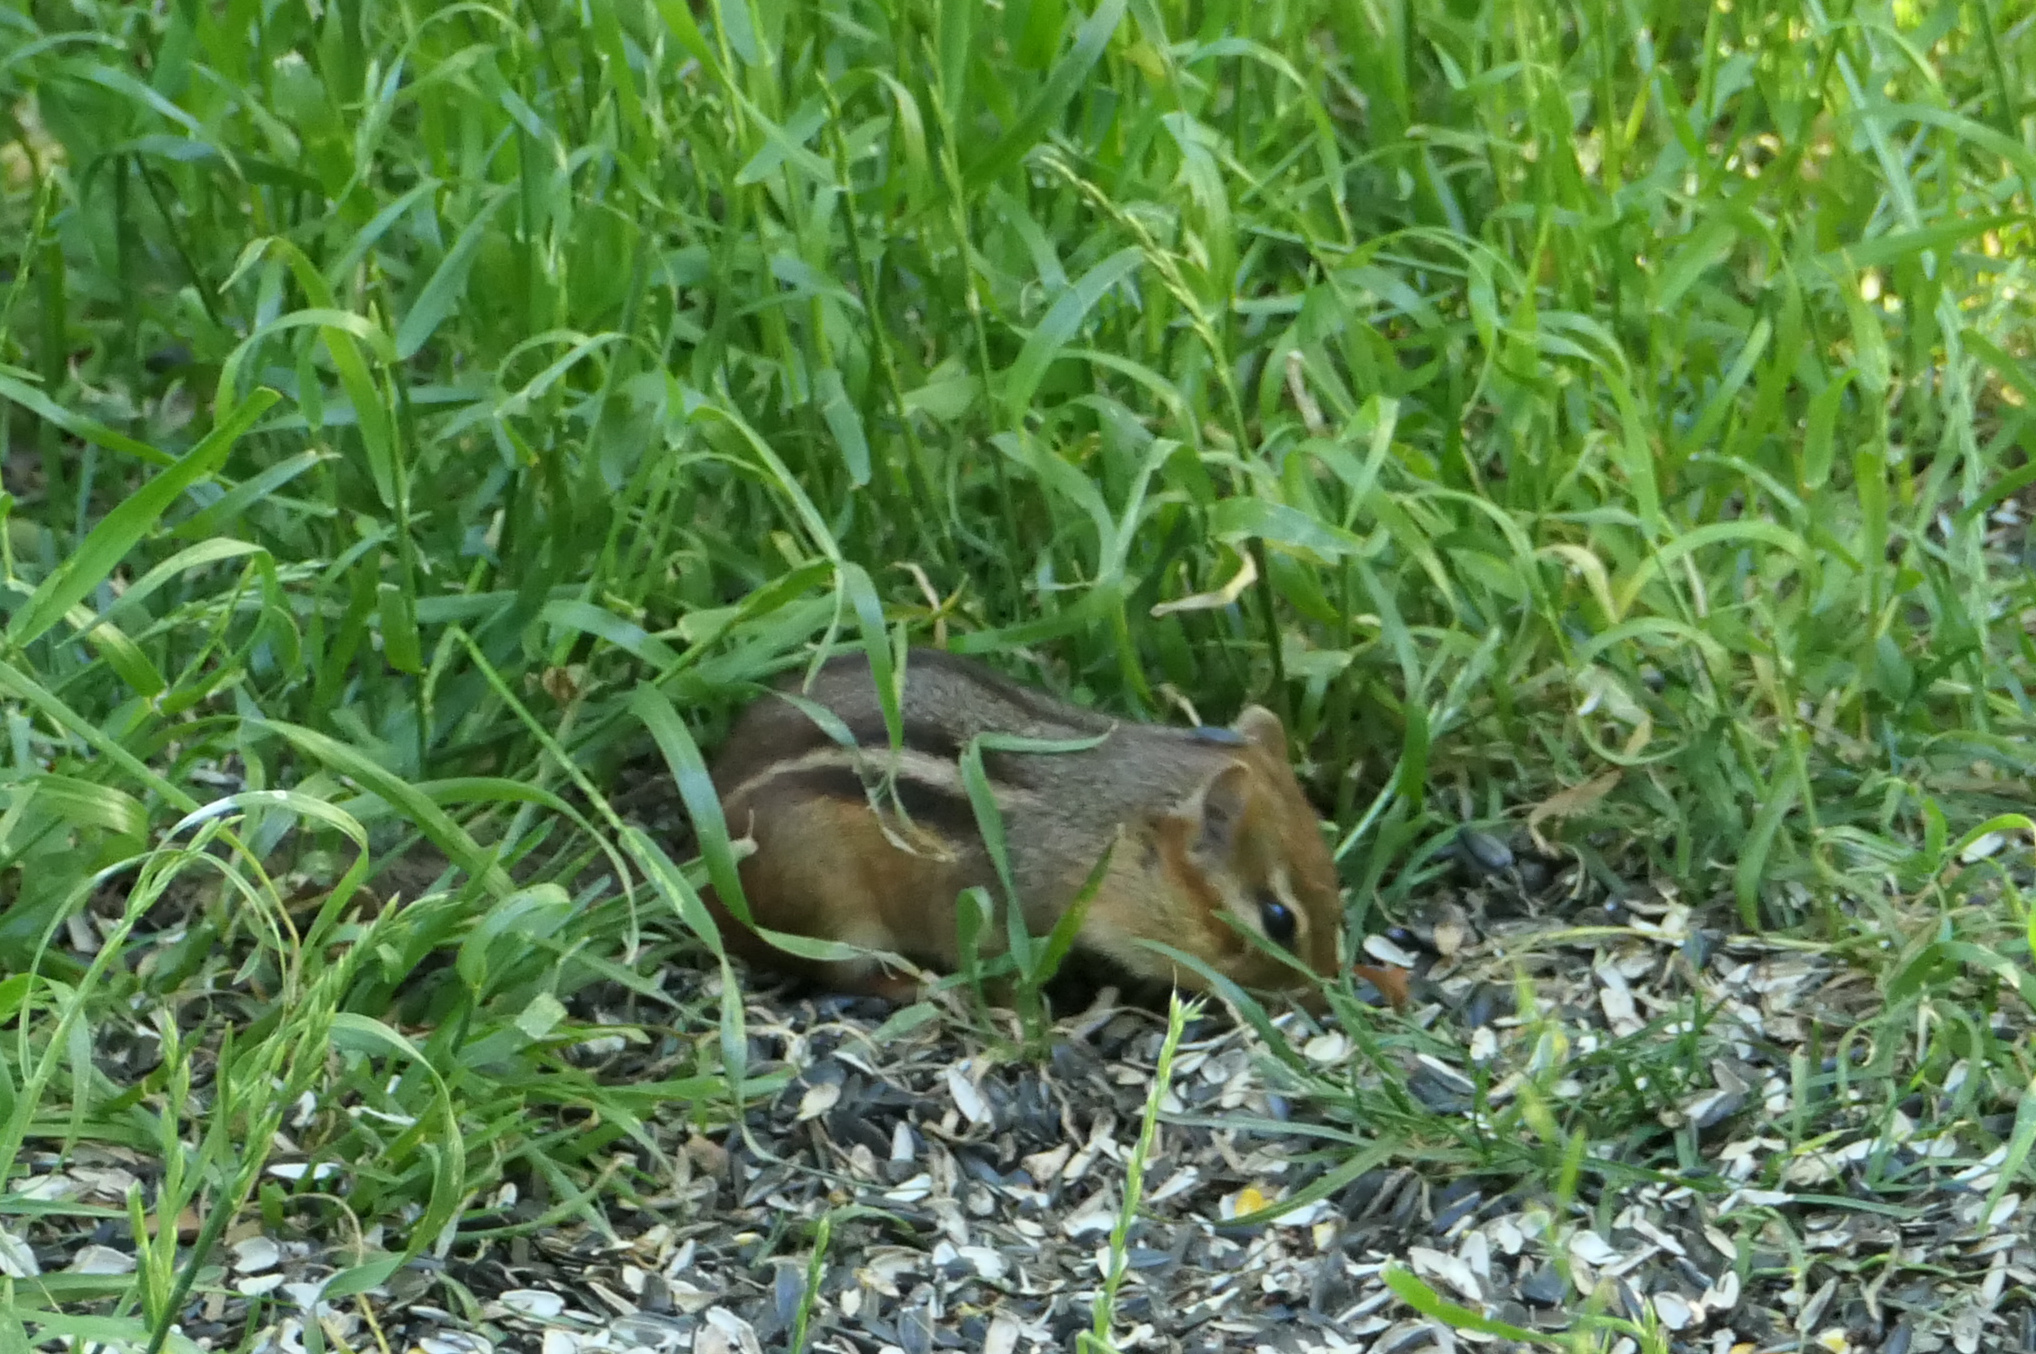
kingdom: Animalia
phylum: Chordata
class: Mammalia
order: Rodentia
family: Sciuridae
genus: Tamias
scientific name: Tamias striatus
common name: Eastern chipmunk
